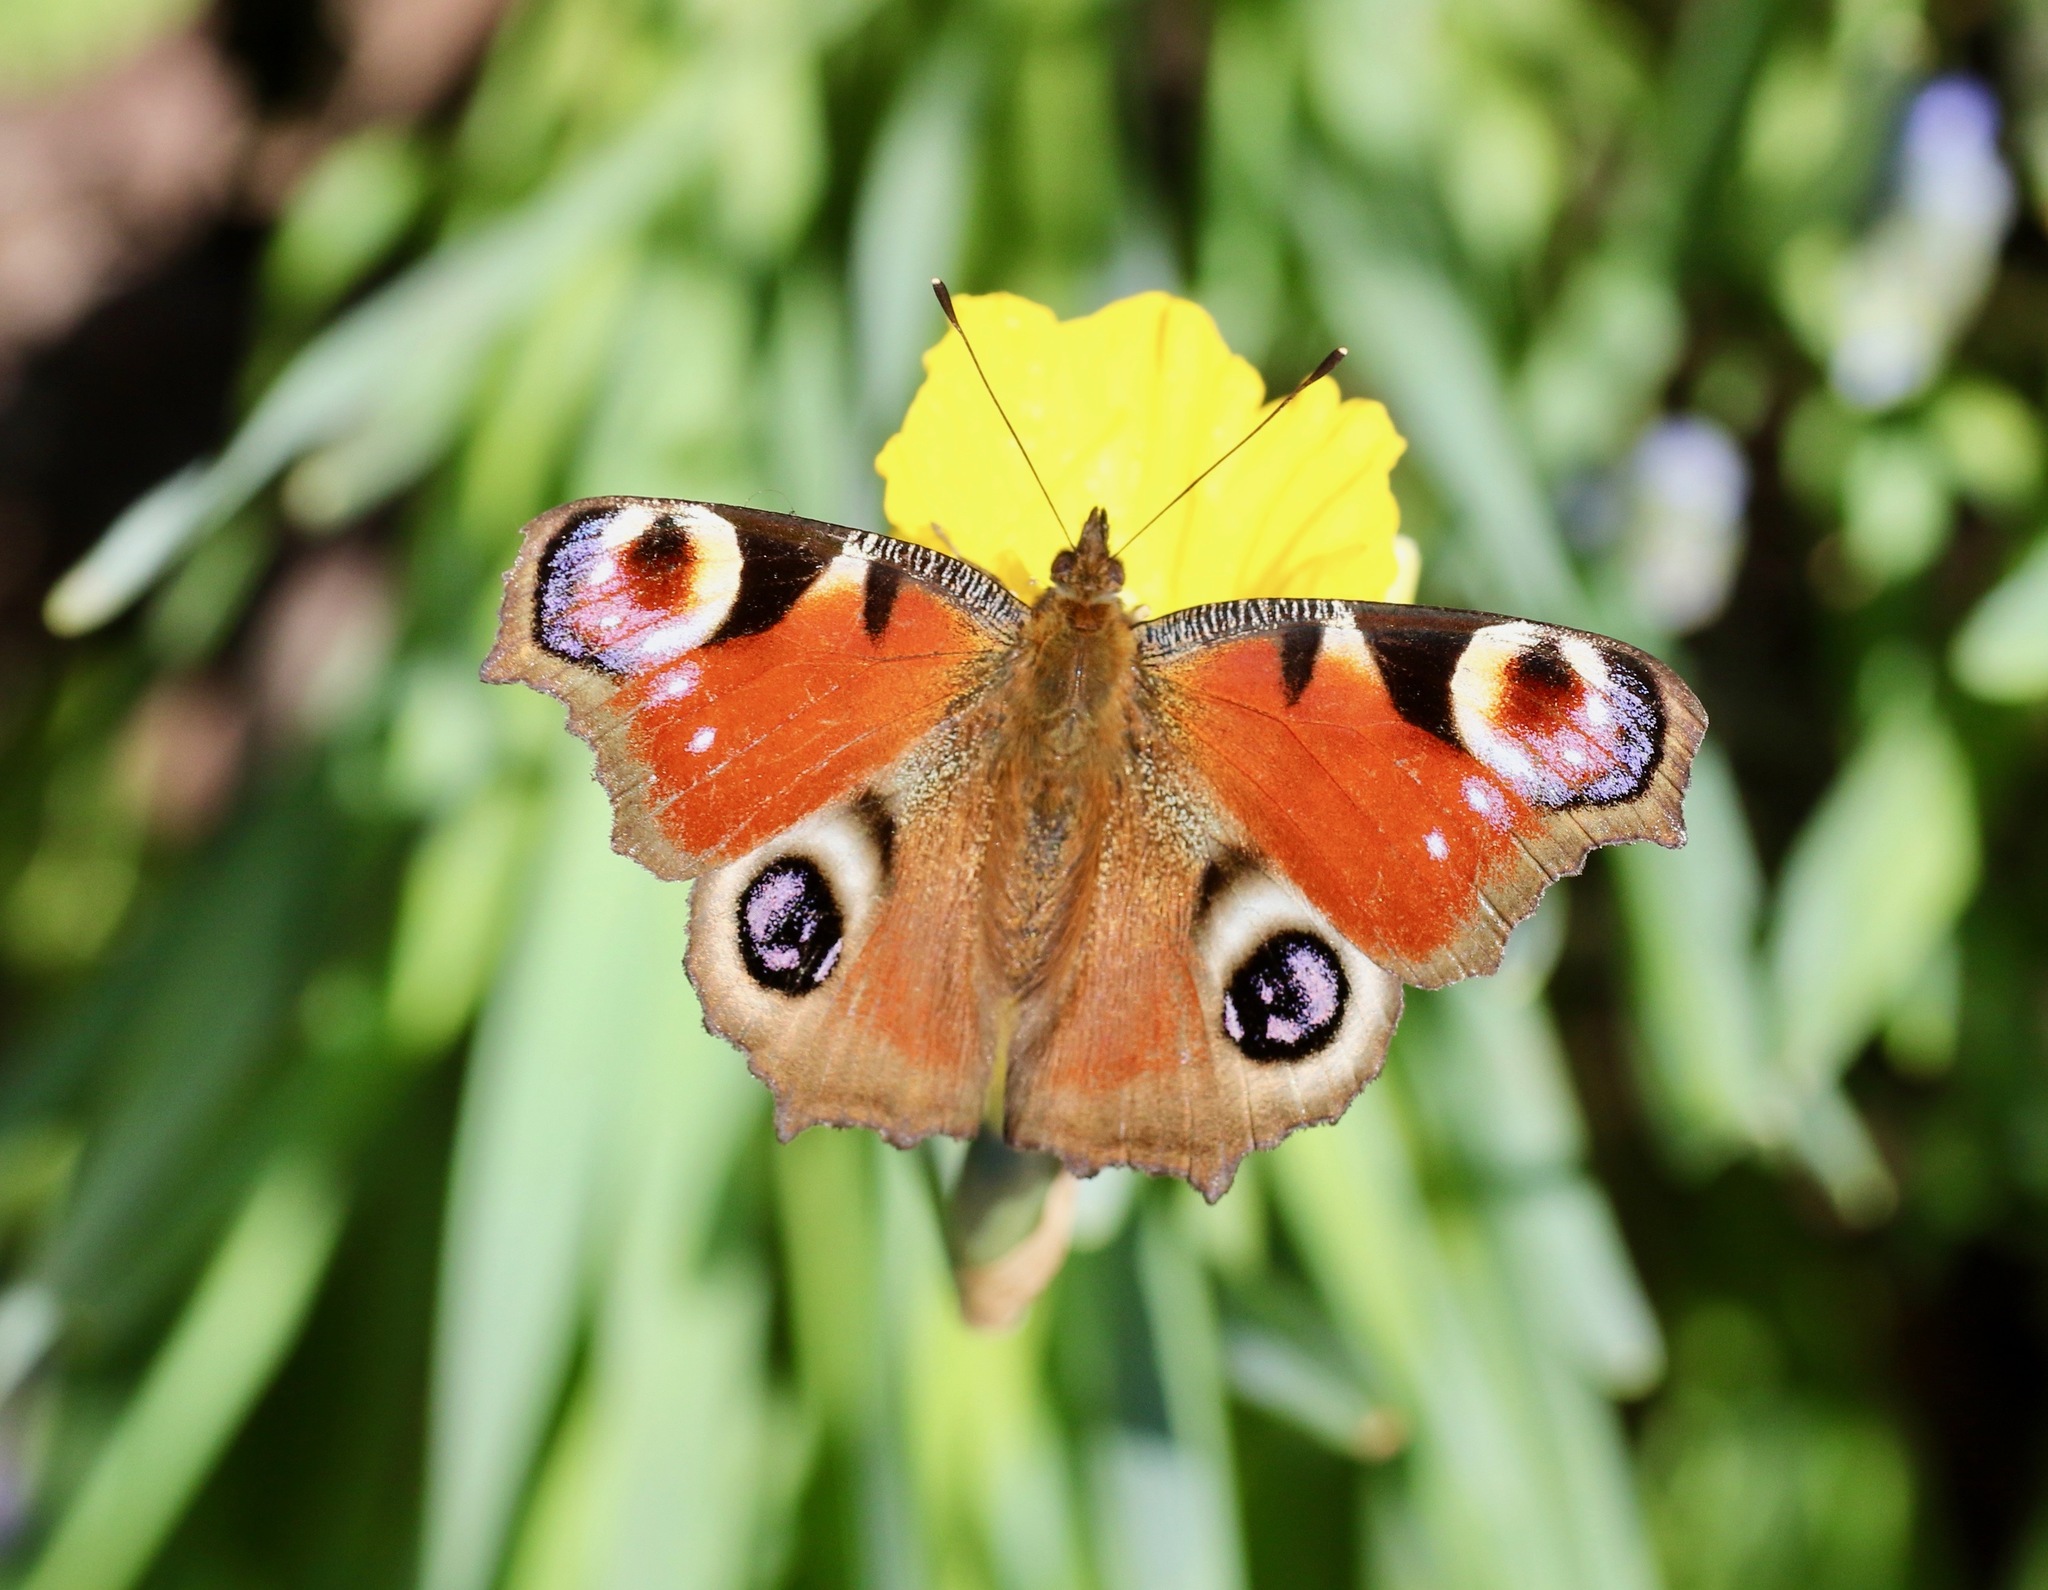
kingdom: Animalia
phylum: Arthropoda
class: Insecta
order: Lepidoptera
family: Nymphalidae
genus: Aglais
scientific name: Aglais io
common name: Peacock
